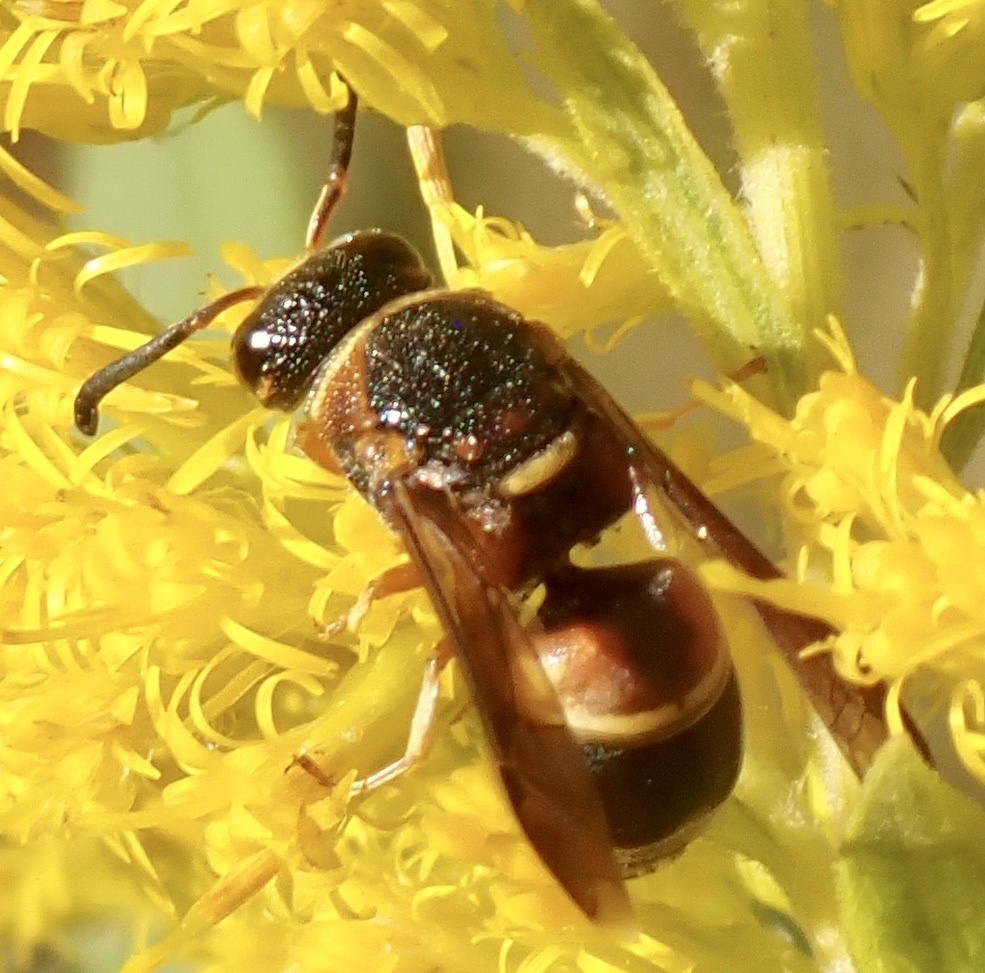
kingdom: Animalia
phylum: Arthropoda
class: Insecta
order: Hymenoptera
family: Eumenidae
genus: Euodynerus
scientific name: Euodynerus hidalgo
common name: Wasp
